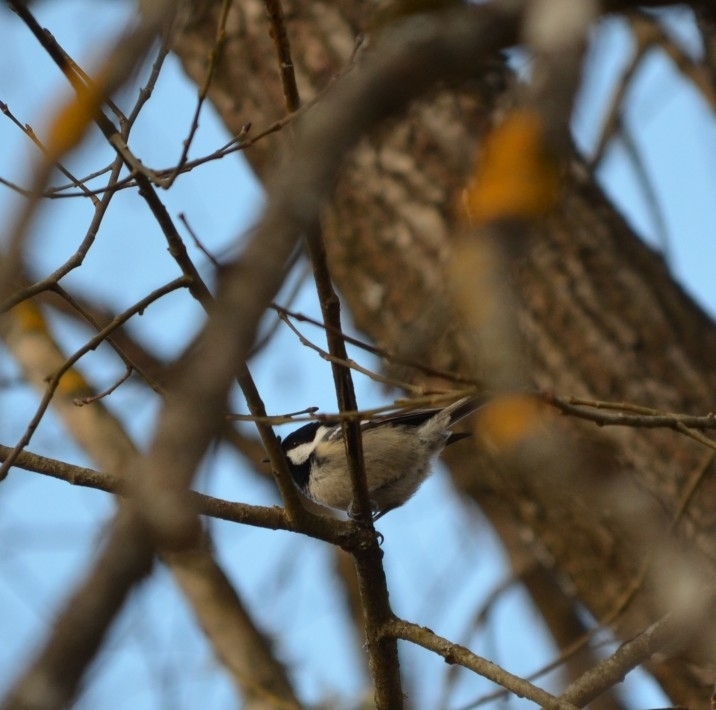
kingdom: Animalia
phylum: Chordata
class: Aves
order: Passeriformes
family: Paridae
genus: Periparus
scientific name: Periparus ater
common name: Coal tit
